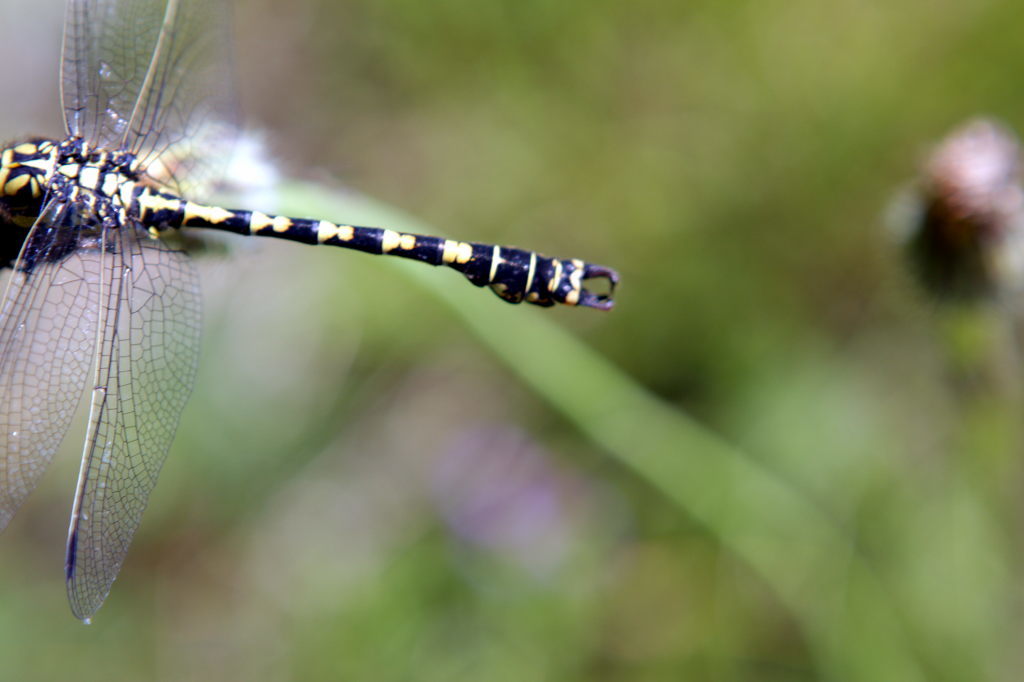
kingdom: Animalia
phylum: Arthropoda
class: Insecta
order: Odonata
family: Gomphidae
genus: Onychogomphus
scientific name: Onychogomphus forcipatus
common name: Small pincertail
